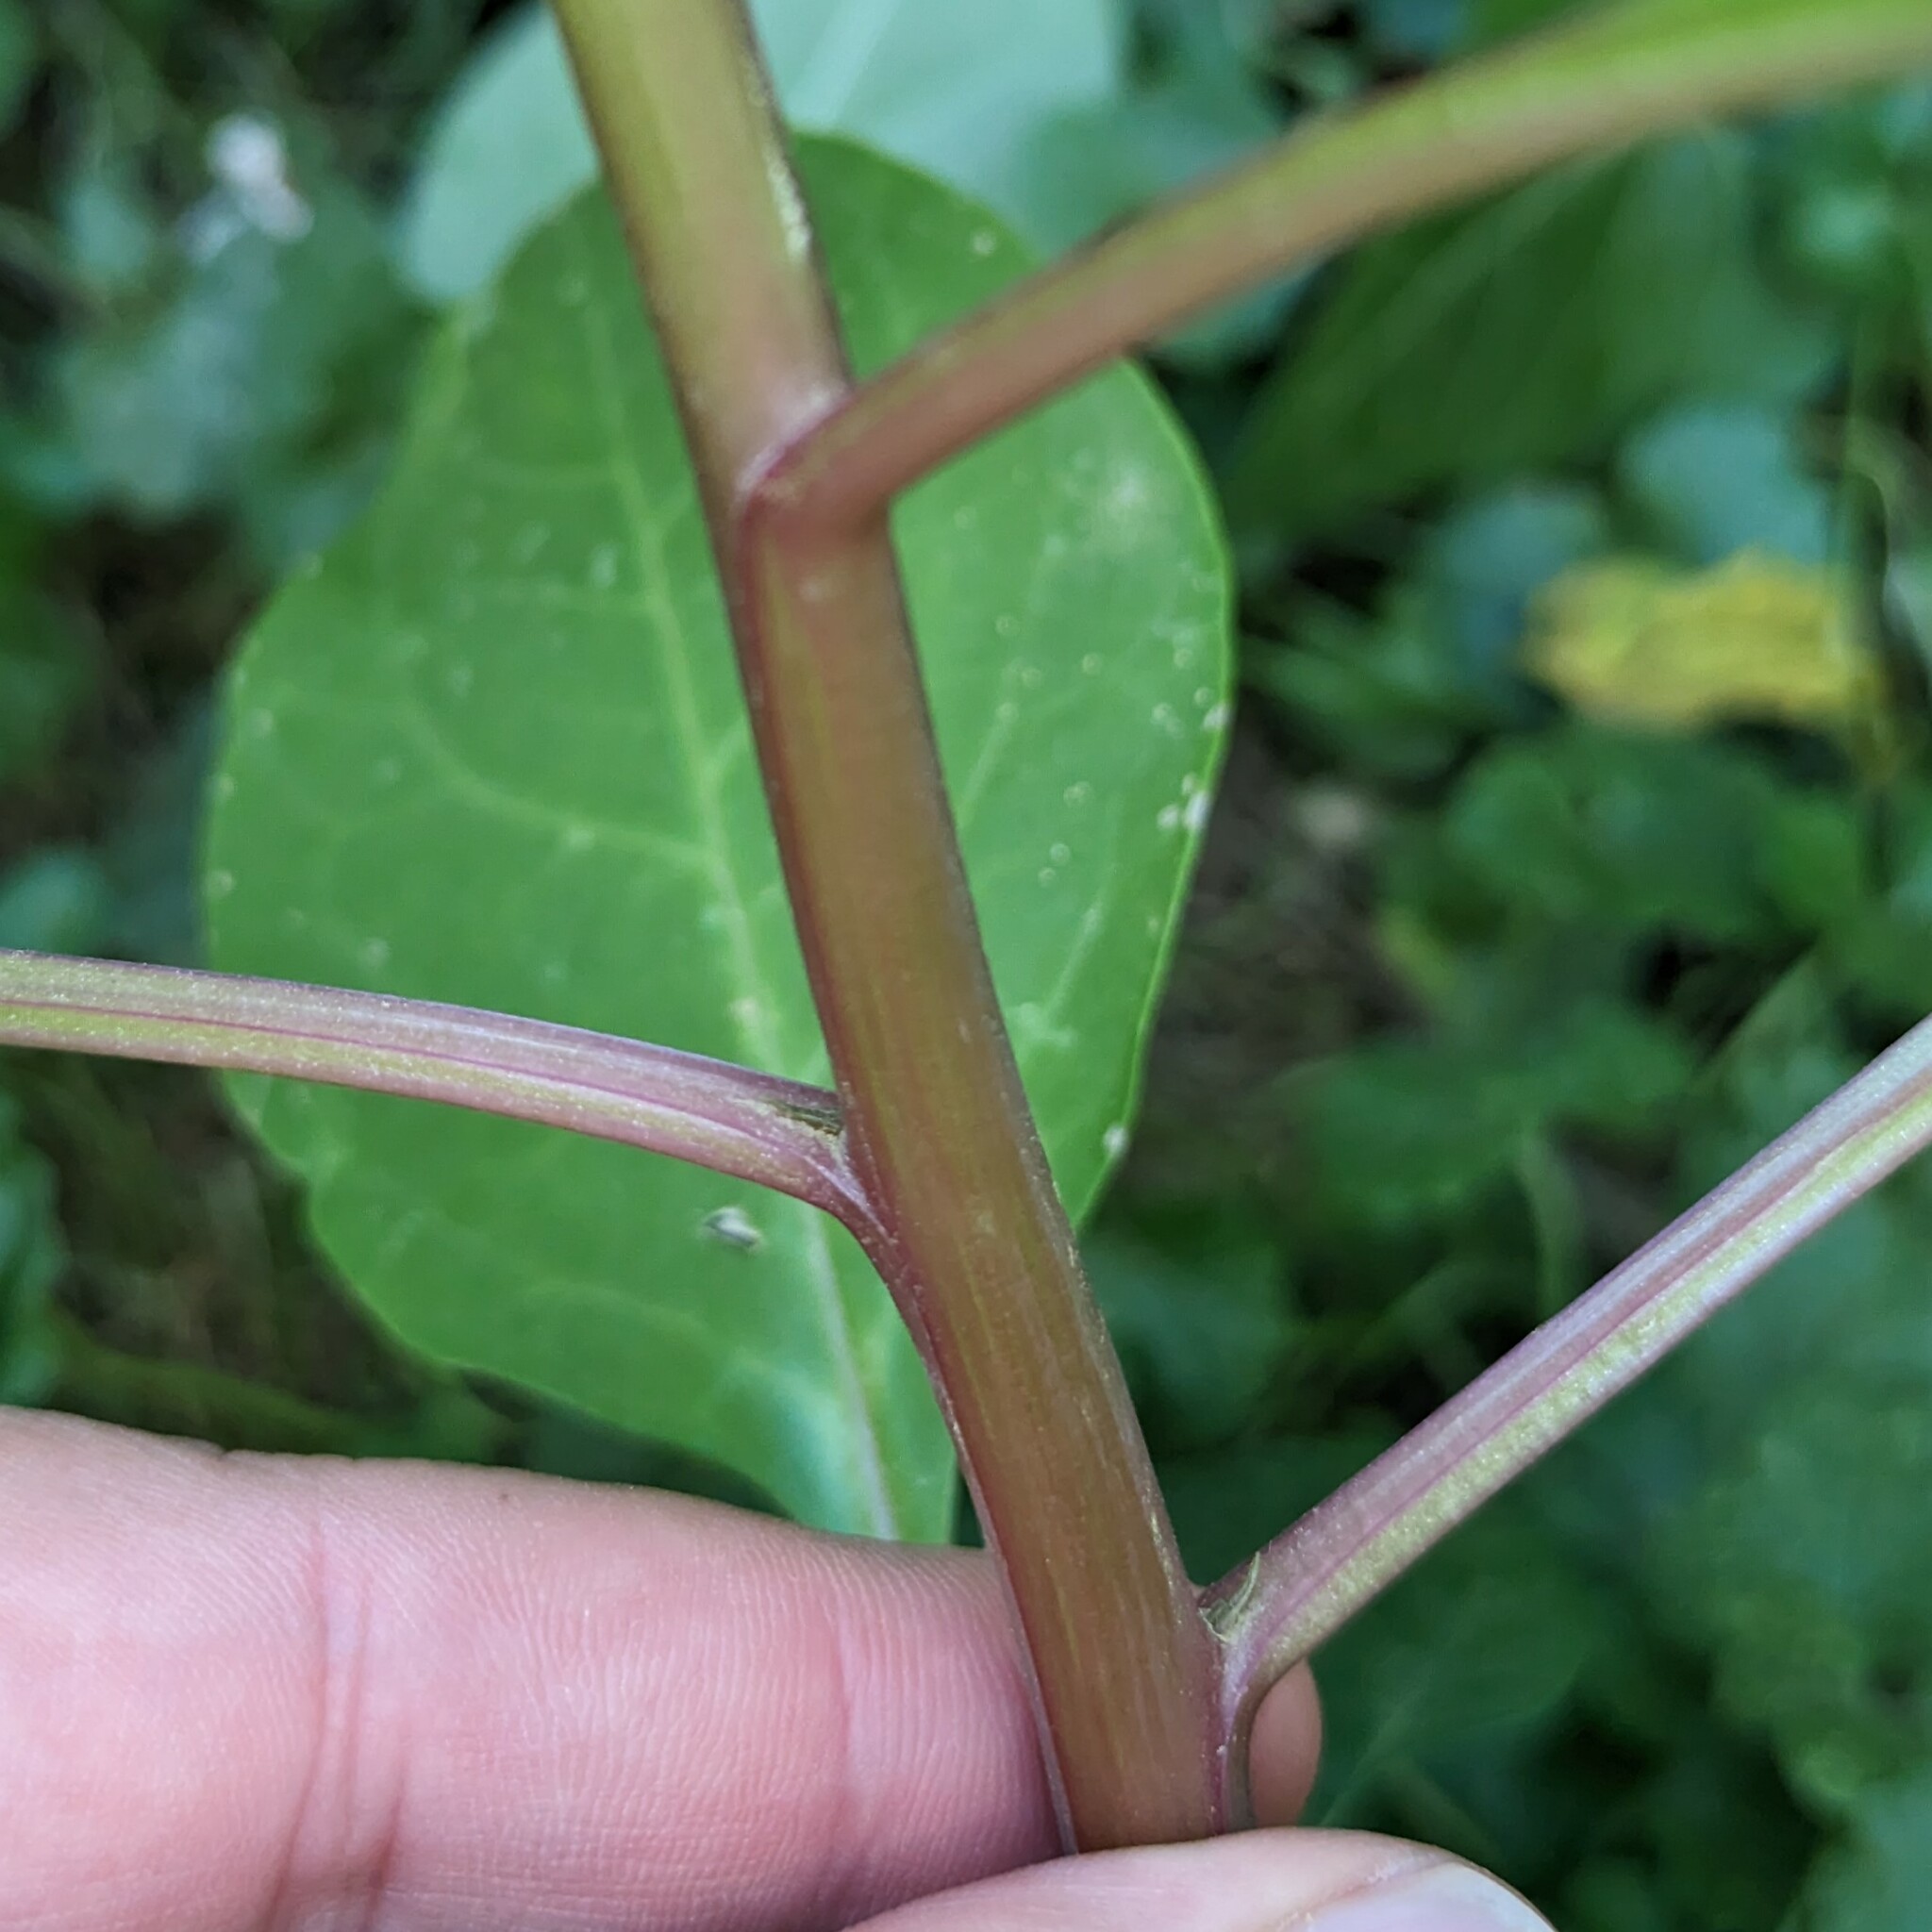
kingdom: Plantae
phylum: Tracheophyta
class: Magnoliopsida
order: Caryophyllales
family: Phytolaccaceae
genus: Phytolacca
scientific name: Phytolacca americana
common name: American pokeweed
